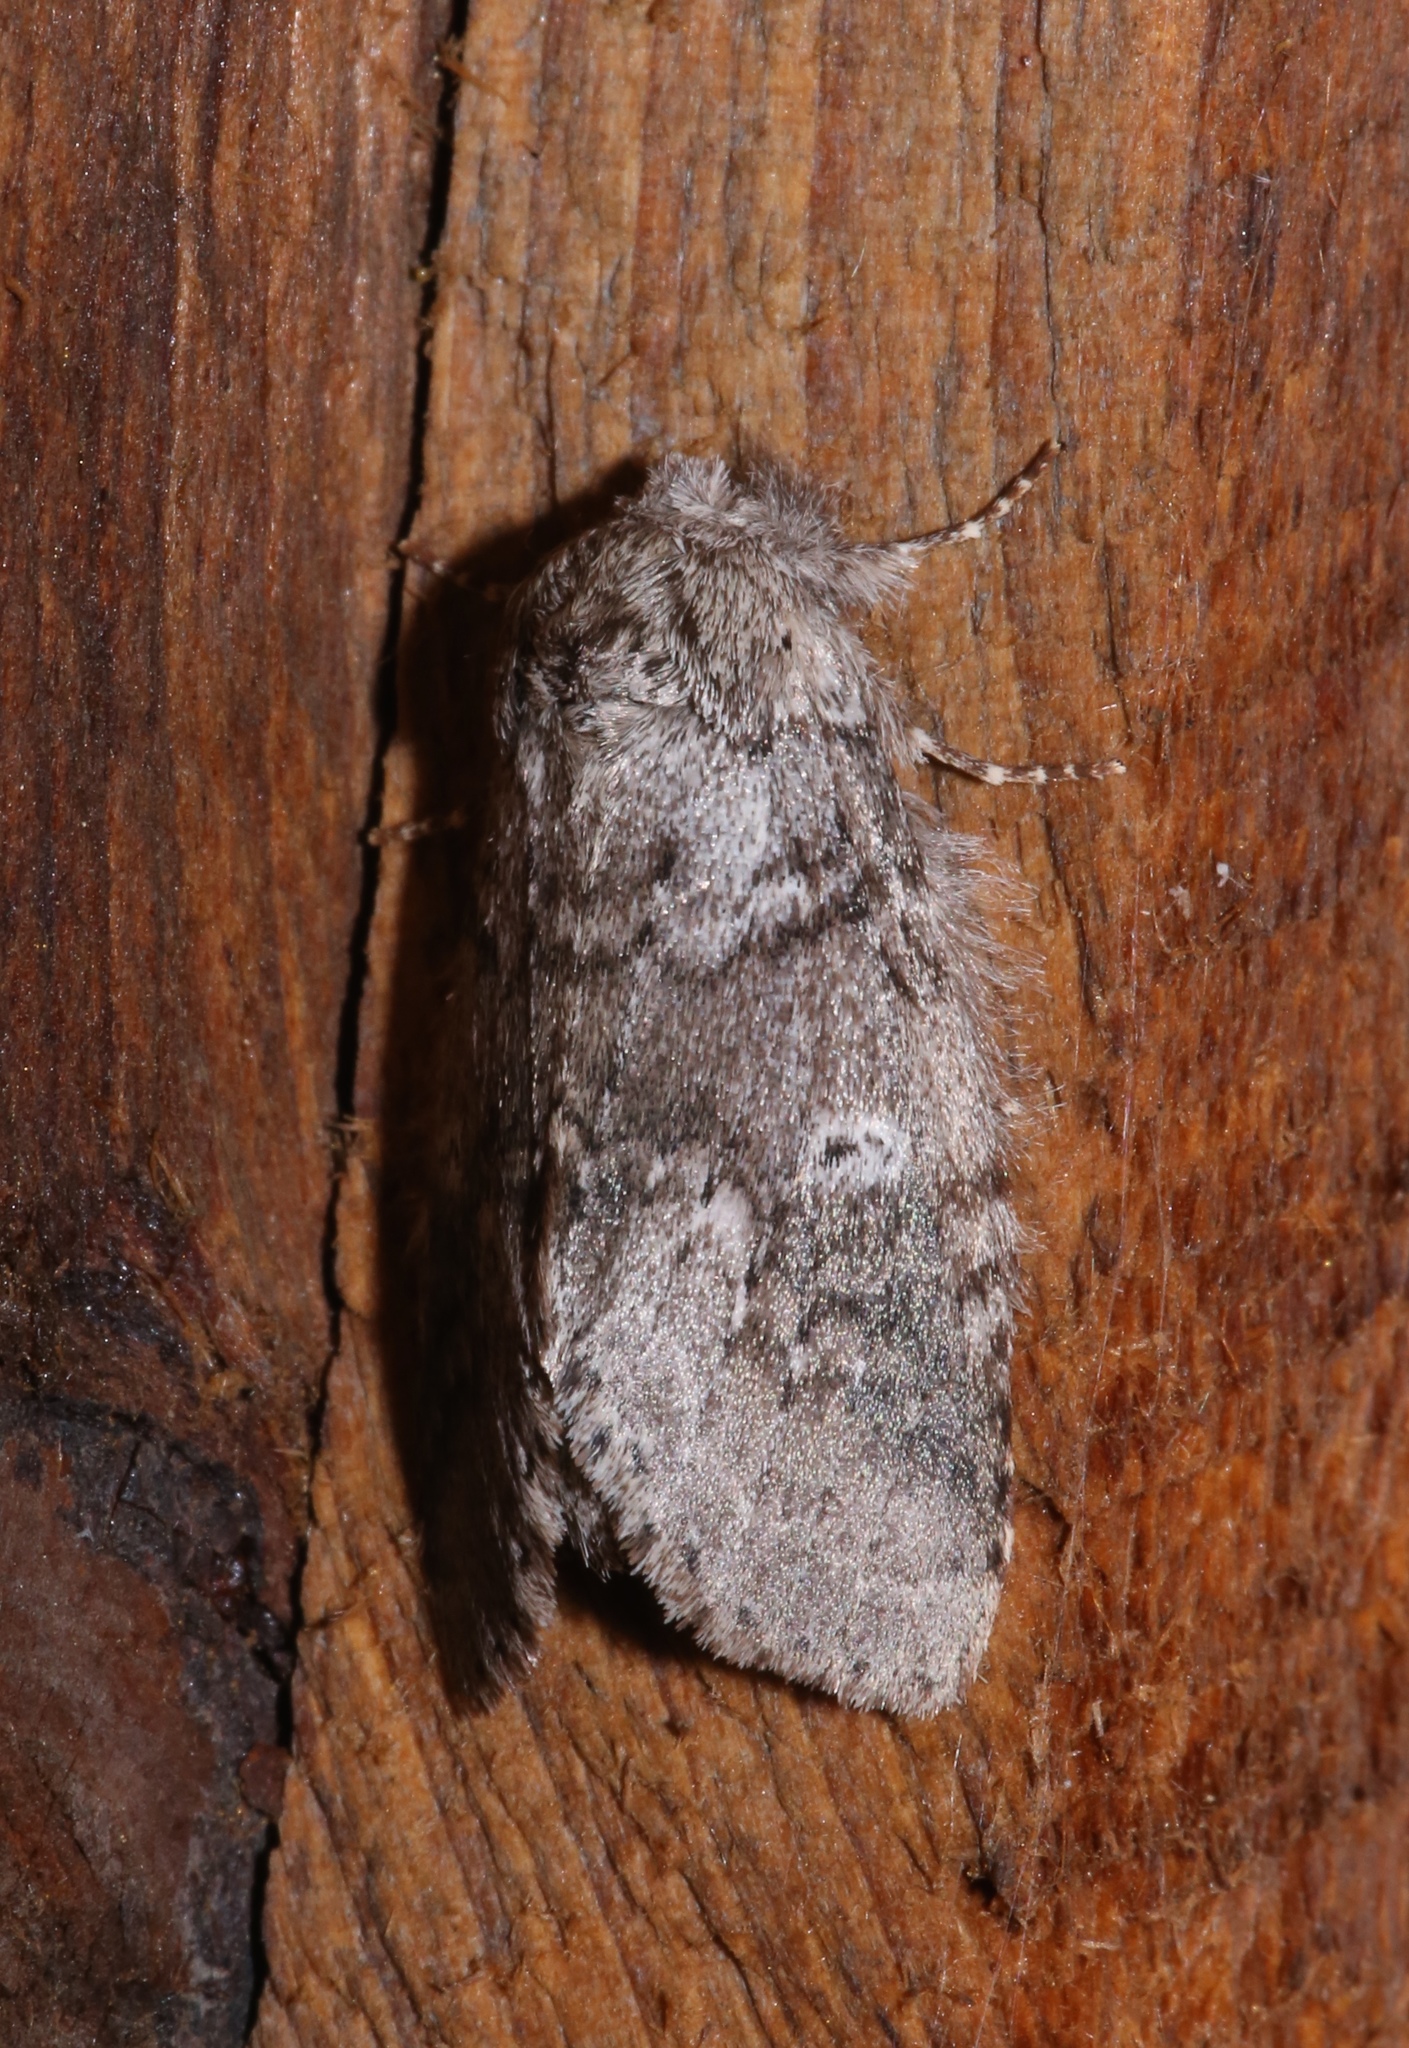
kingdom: Animalia
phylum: Arthropoda
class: Insecta
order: Lepidoptera
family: Notodontidae
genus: Lochmaeus
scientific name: Lochmaeus bilineata
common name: Double-lined prominent
